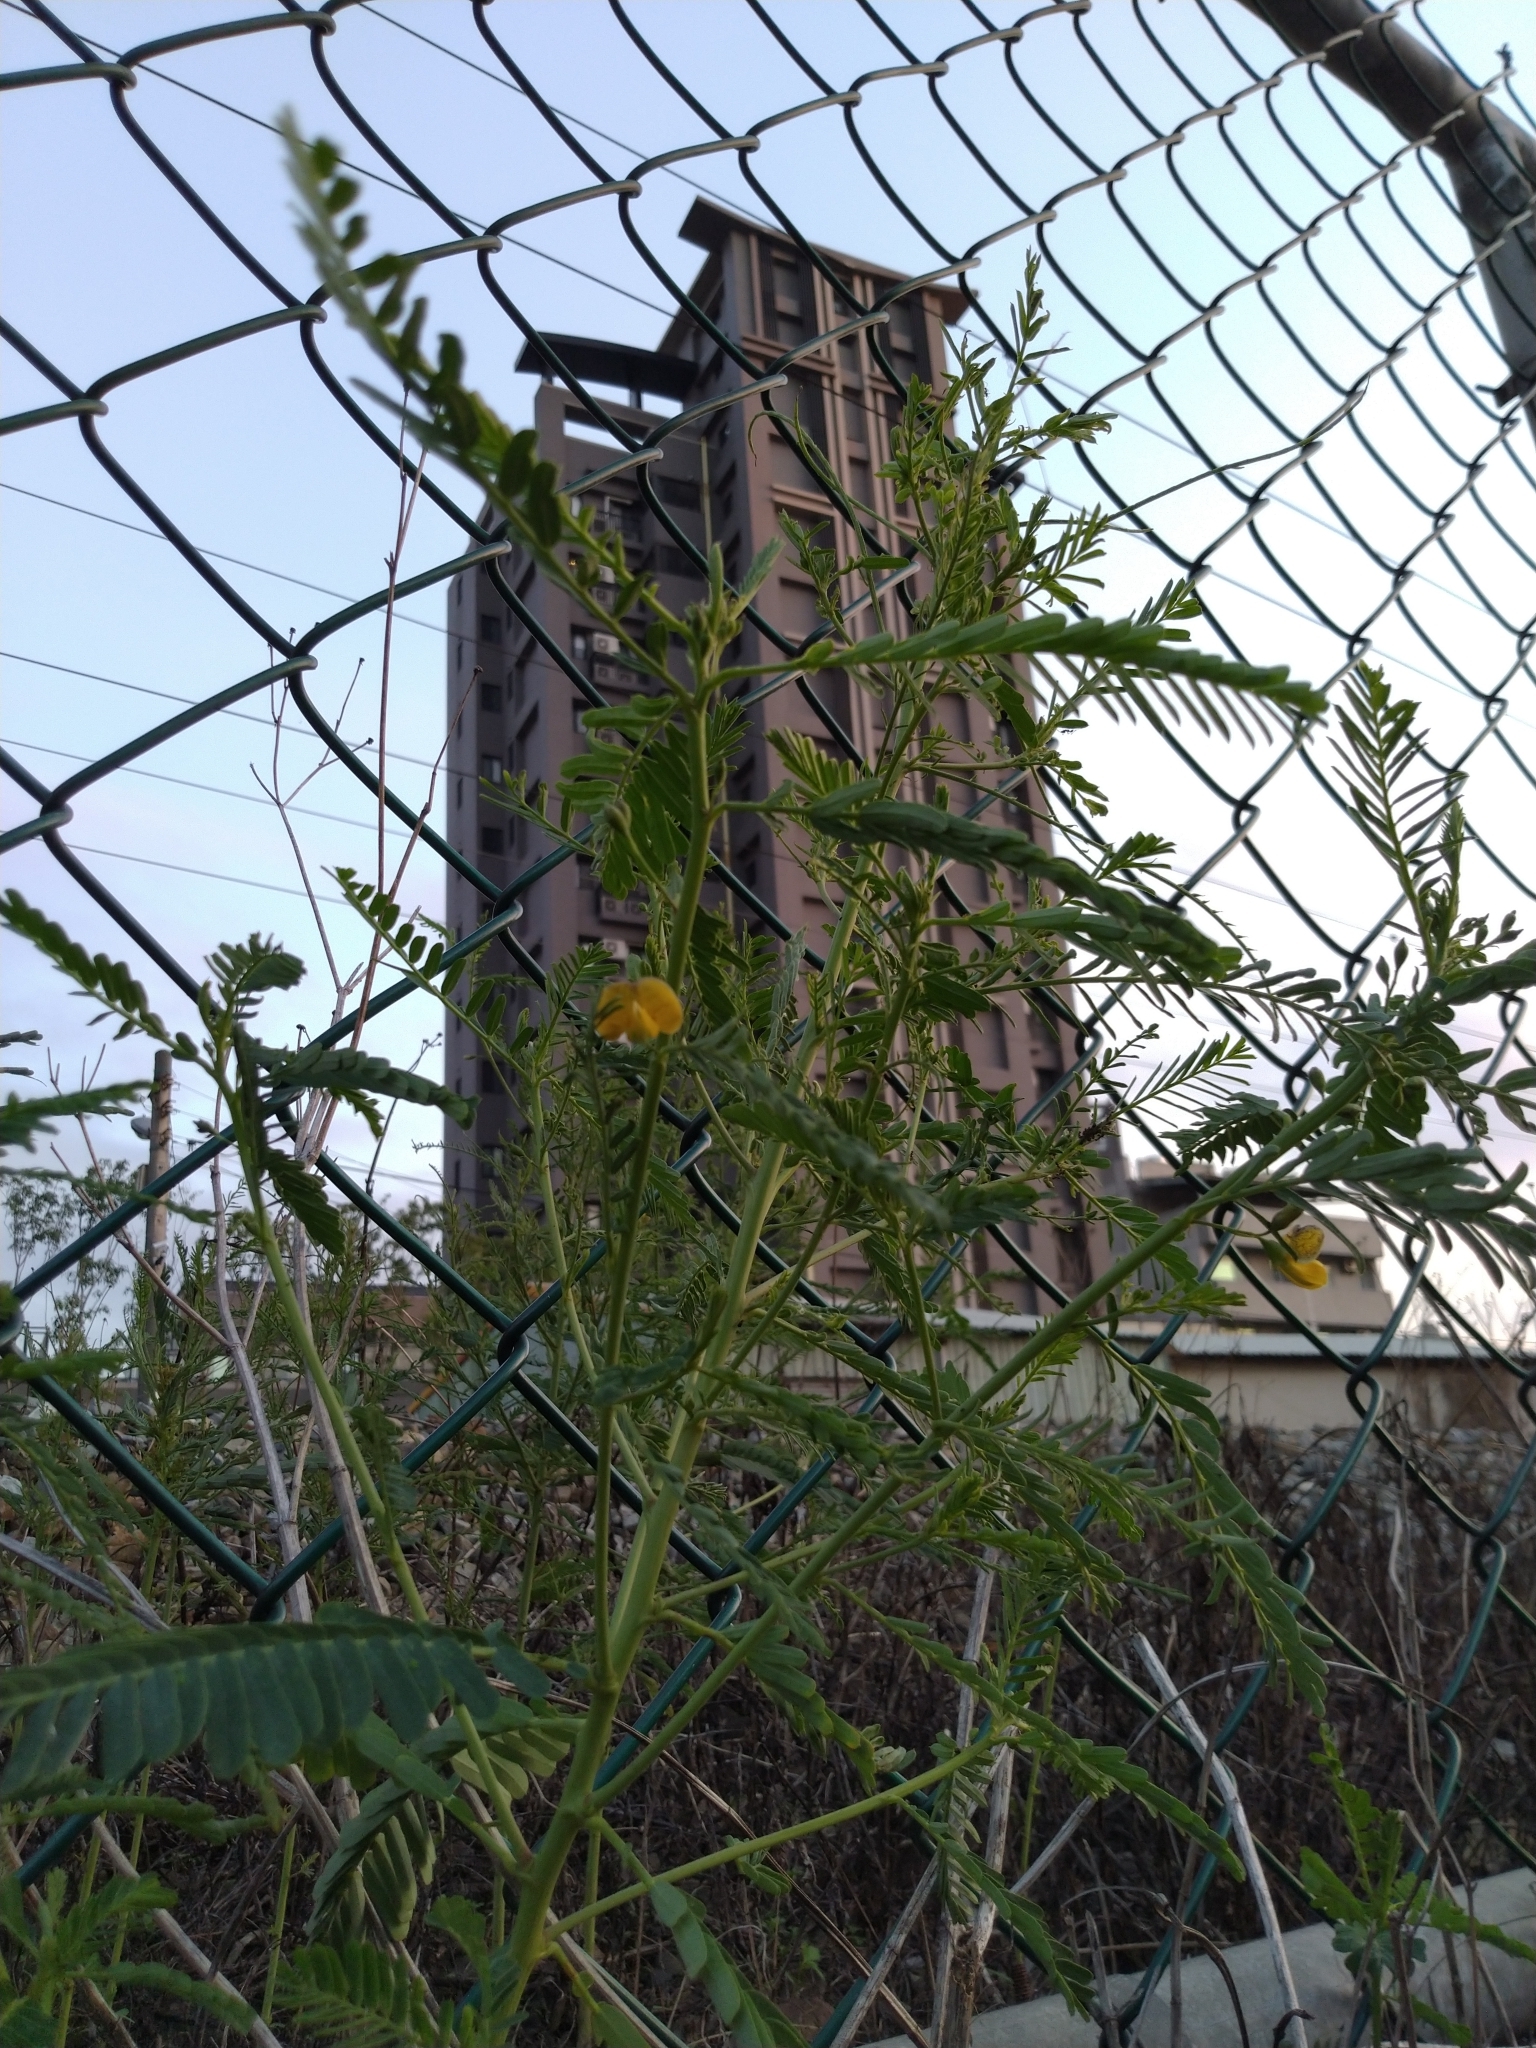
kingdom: Plantae
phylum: Tracheophyta
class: Magnoliopsida
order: Fabales
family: Fabaceae
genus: Sesbania
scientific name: Sesbania cannabina
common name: Canicha
